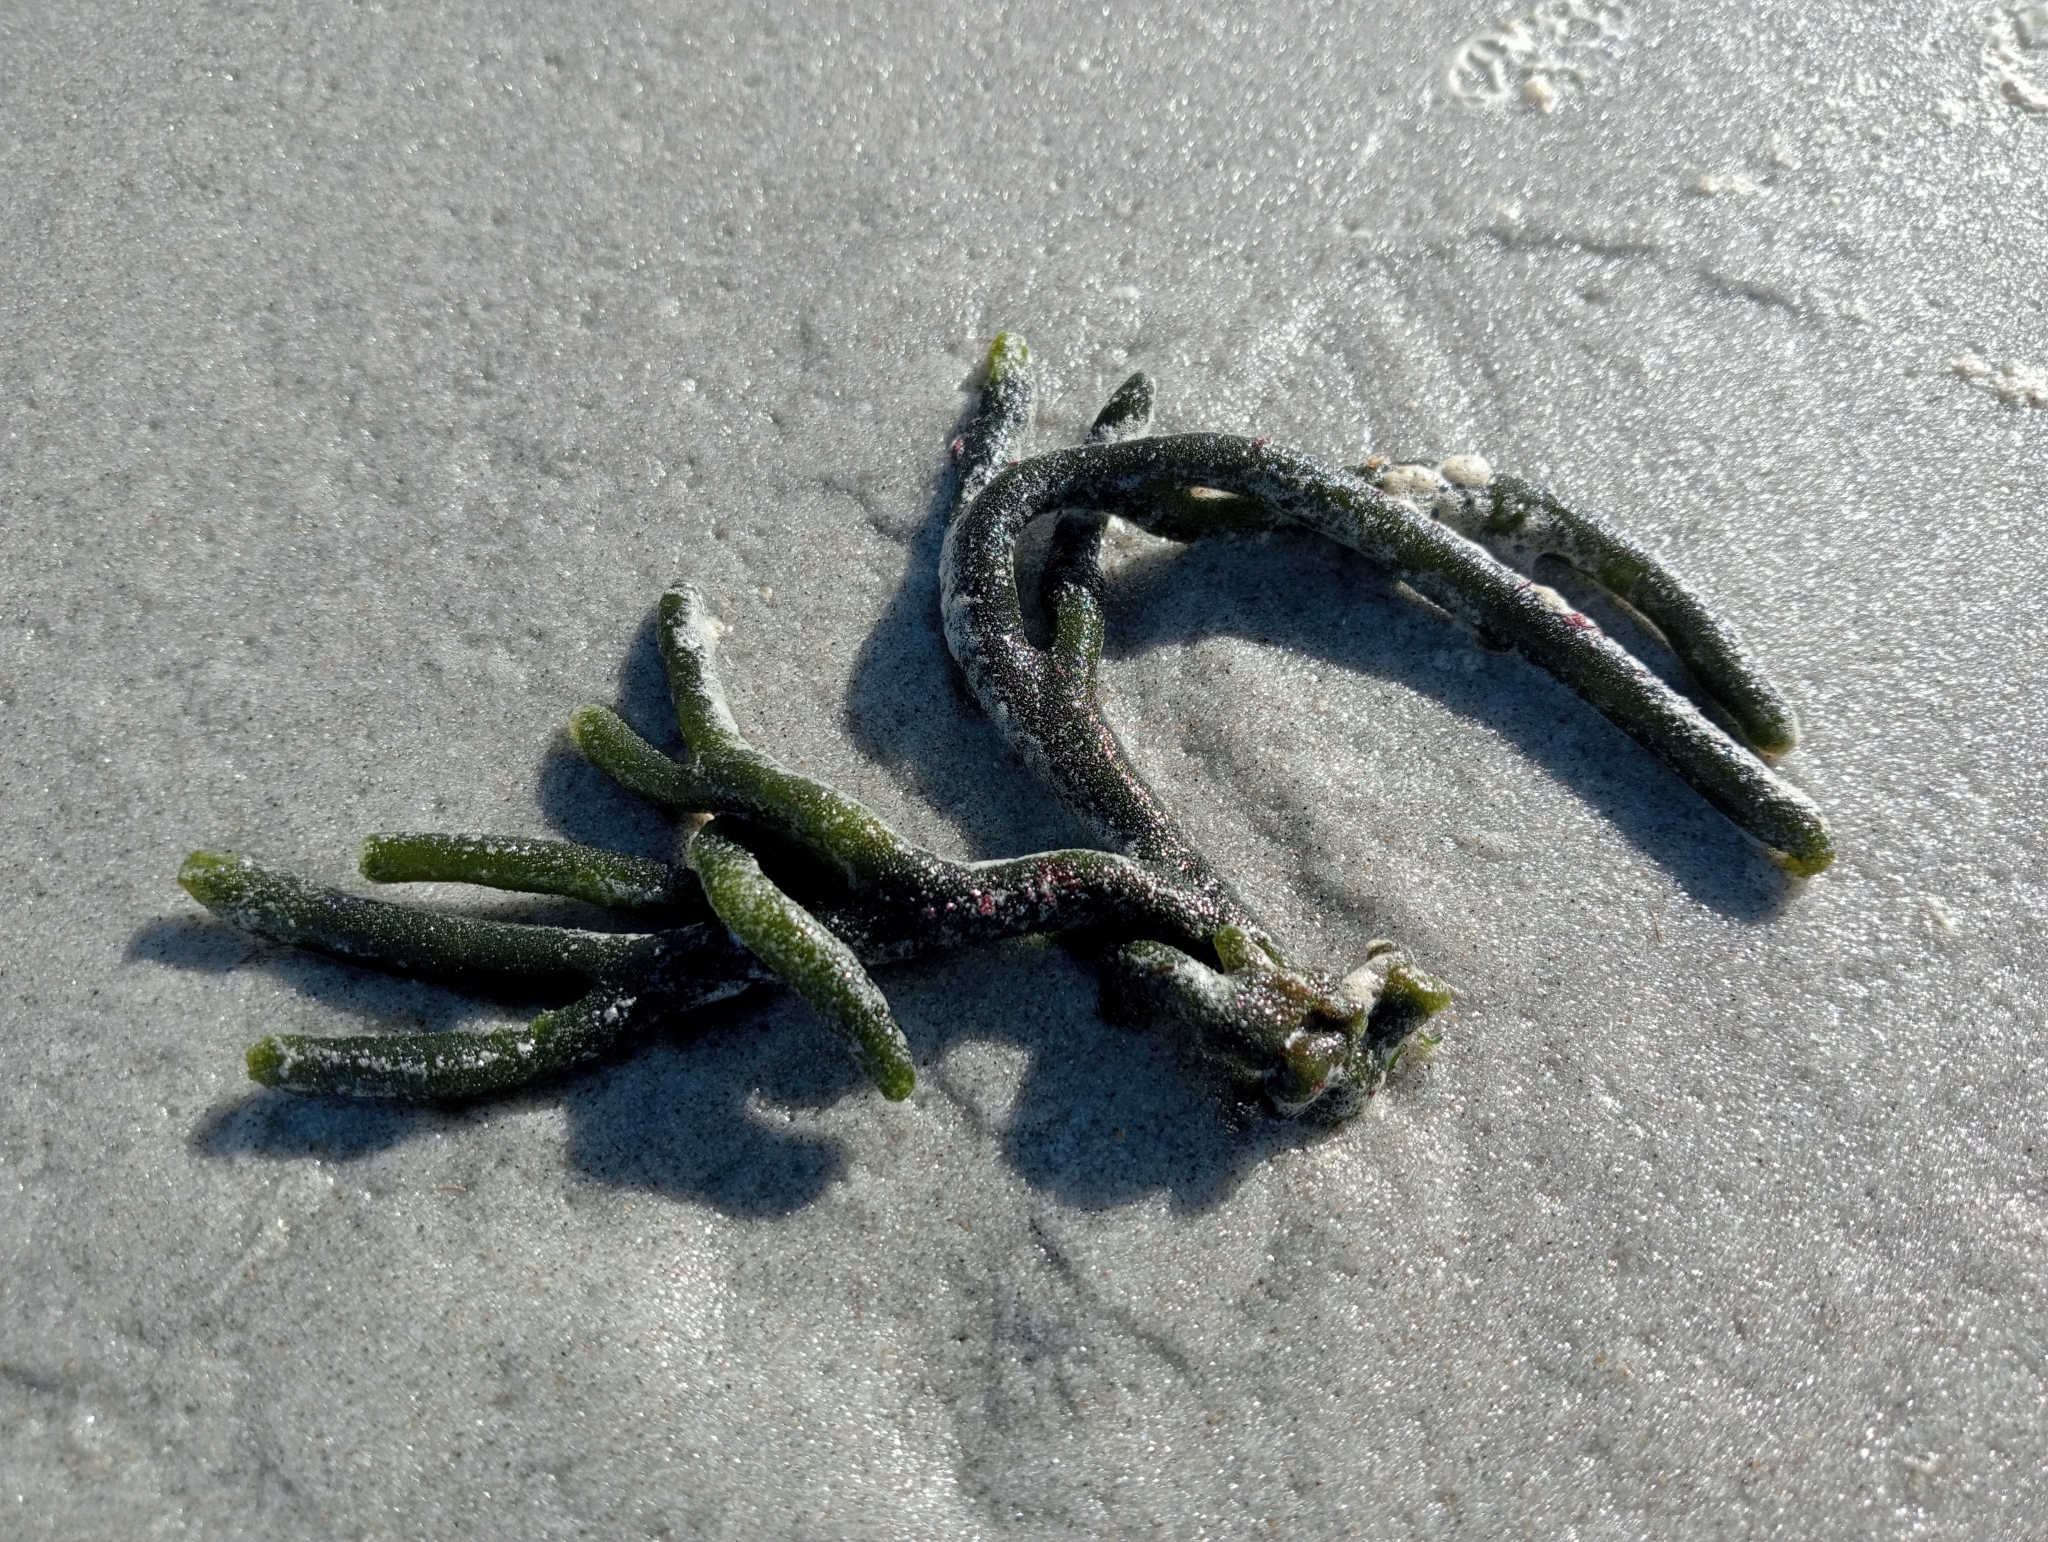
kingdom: Plantae
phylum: Chlorophyta
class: Ulvophyceae
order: Bryopsidales
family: Codiaceae
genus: Codium
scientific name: Codium fragile
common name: Dead man's fingers
